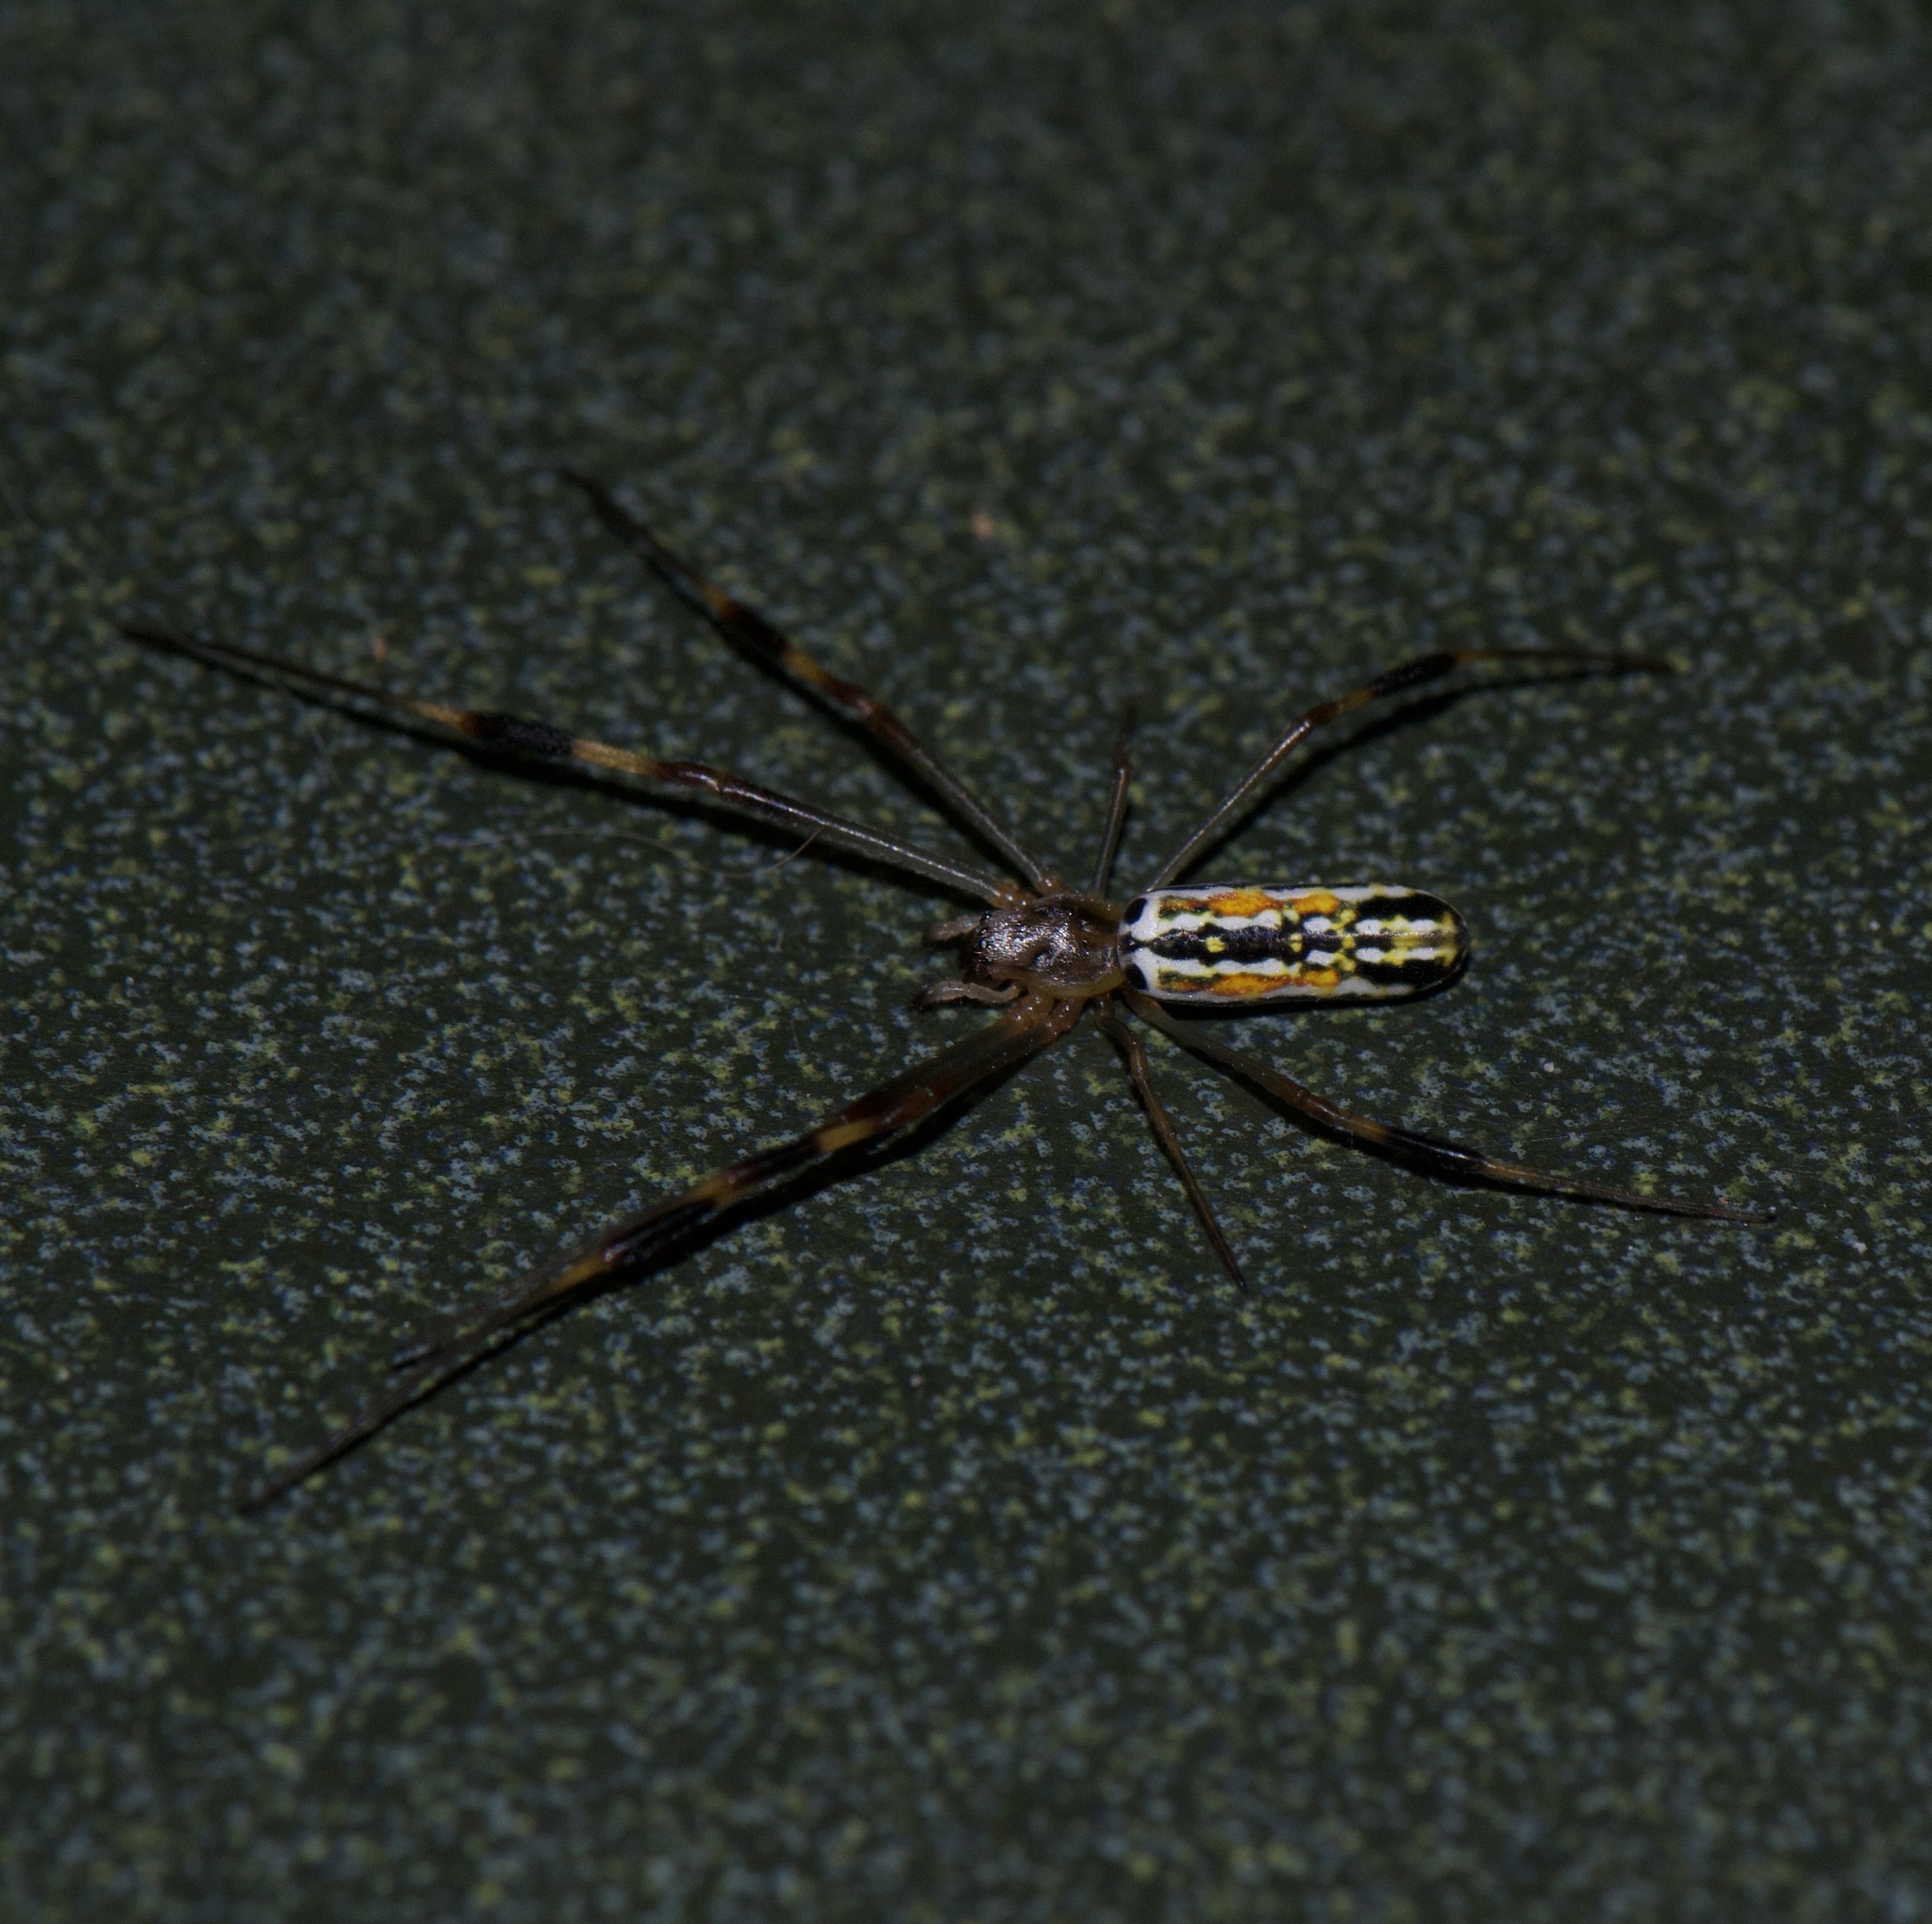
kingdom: Animalia
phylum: Arthropoda
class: Arachnida
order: Araneae
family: Araneidae
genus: Trichonephila
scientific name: Trichonephila clavipes
